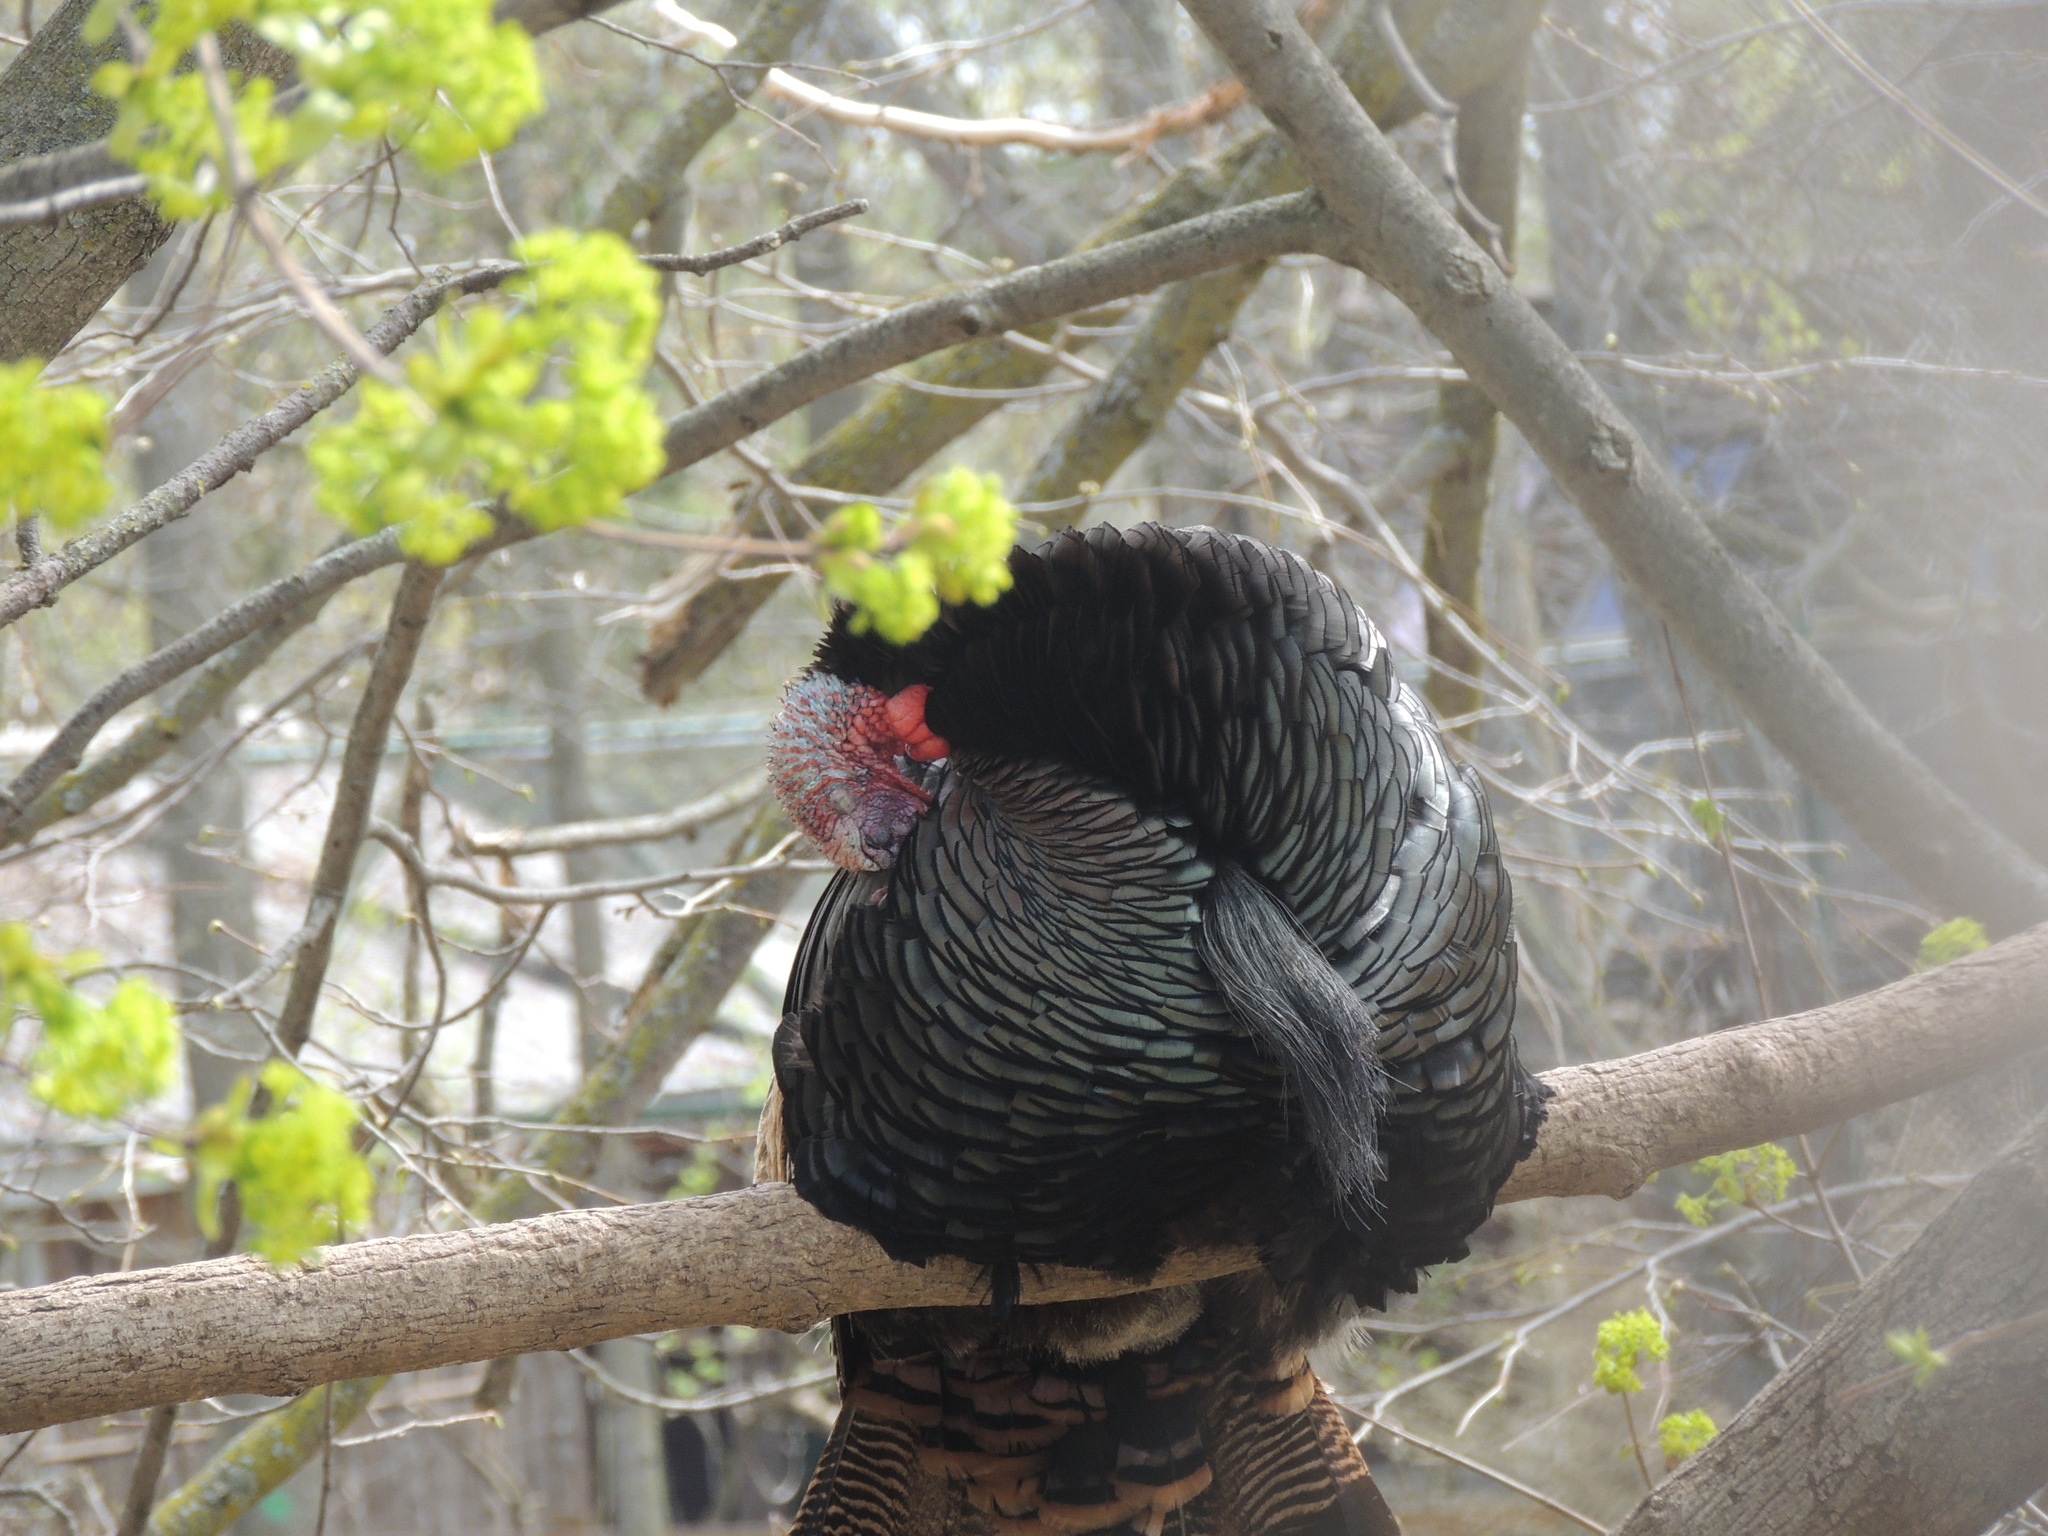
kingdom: Animalia
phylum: Chordata
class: Aves
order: Galliformes
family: Phasianidae
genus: Meleagris
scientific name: Meleagris gallopavo
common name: Wild turkey
